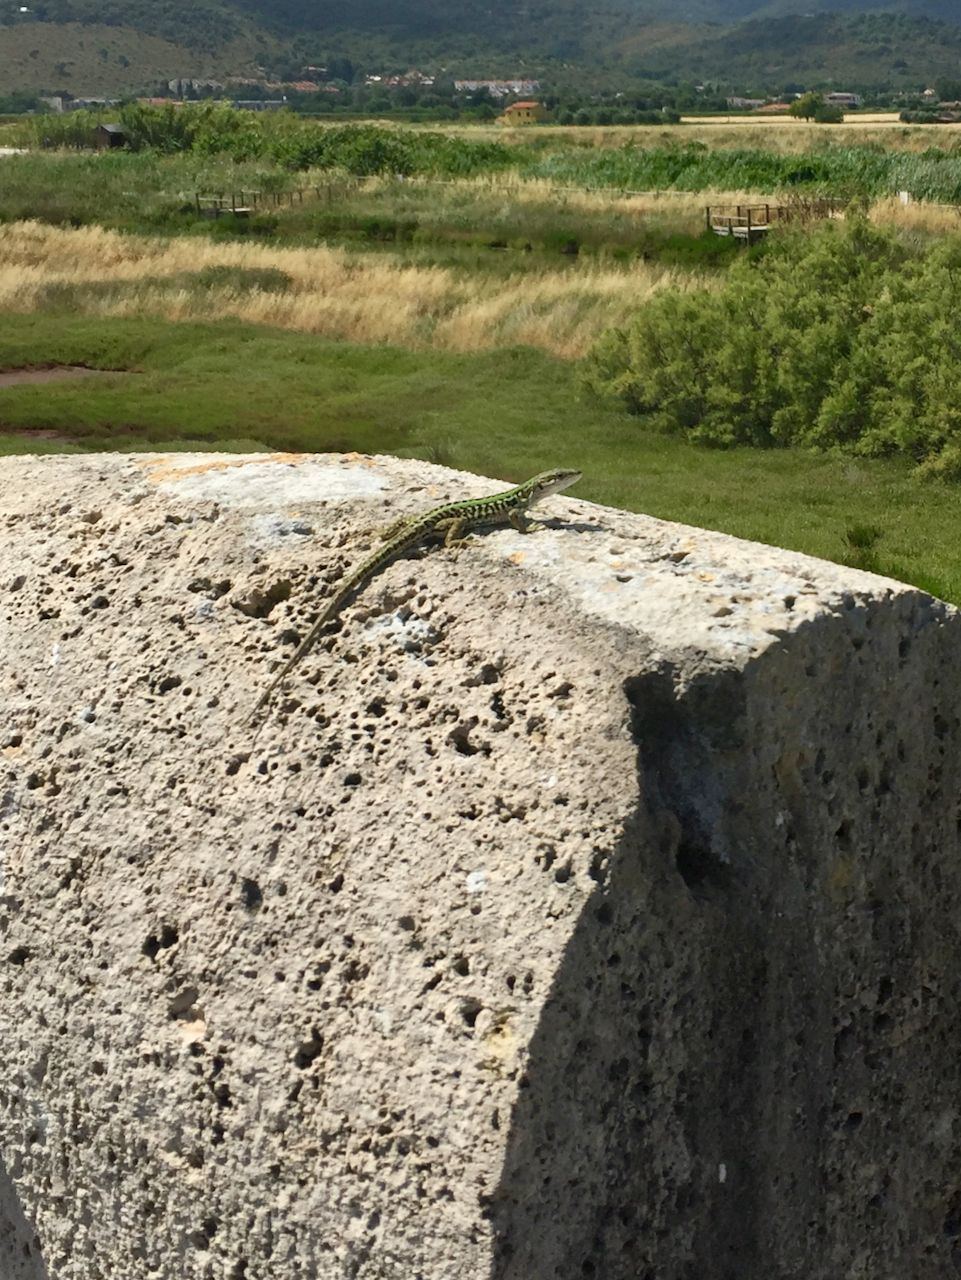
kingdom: Animalia
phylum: Chordata
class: Squamata
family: Lacertidae
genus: Podarcis
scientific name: Podarcis siculus
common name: Italian wall lizard
